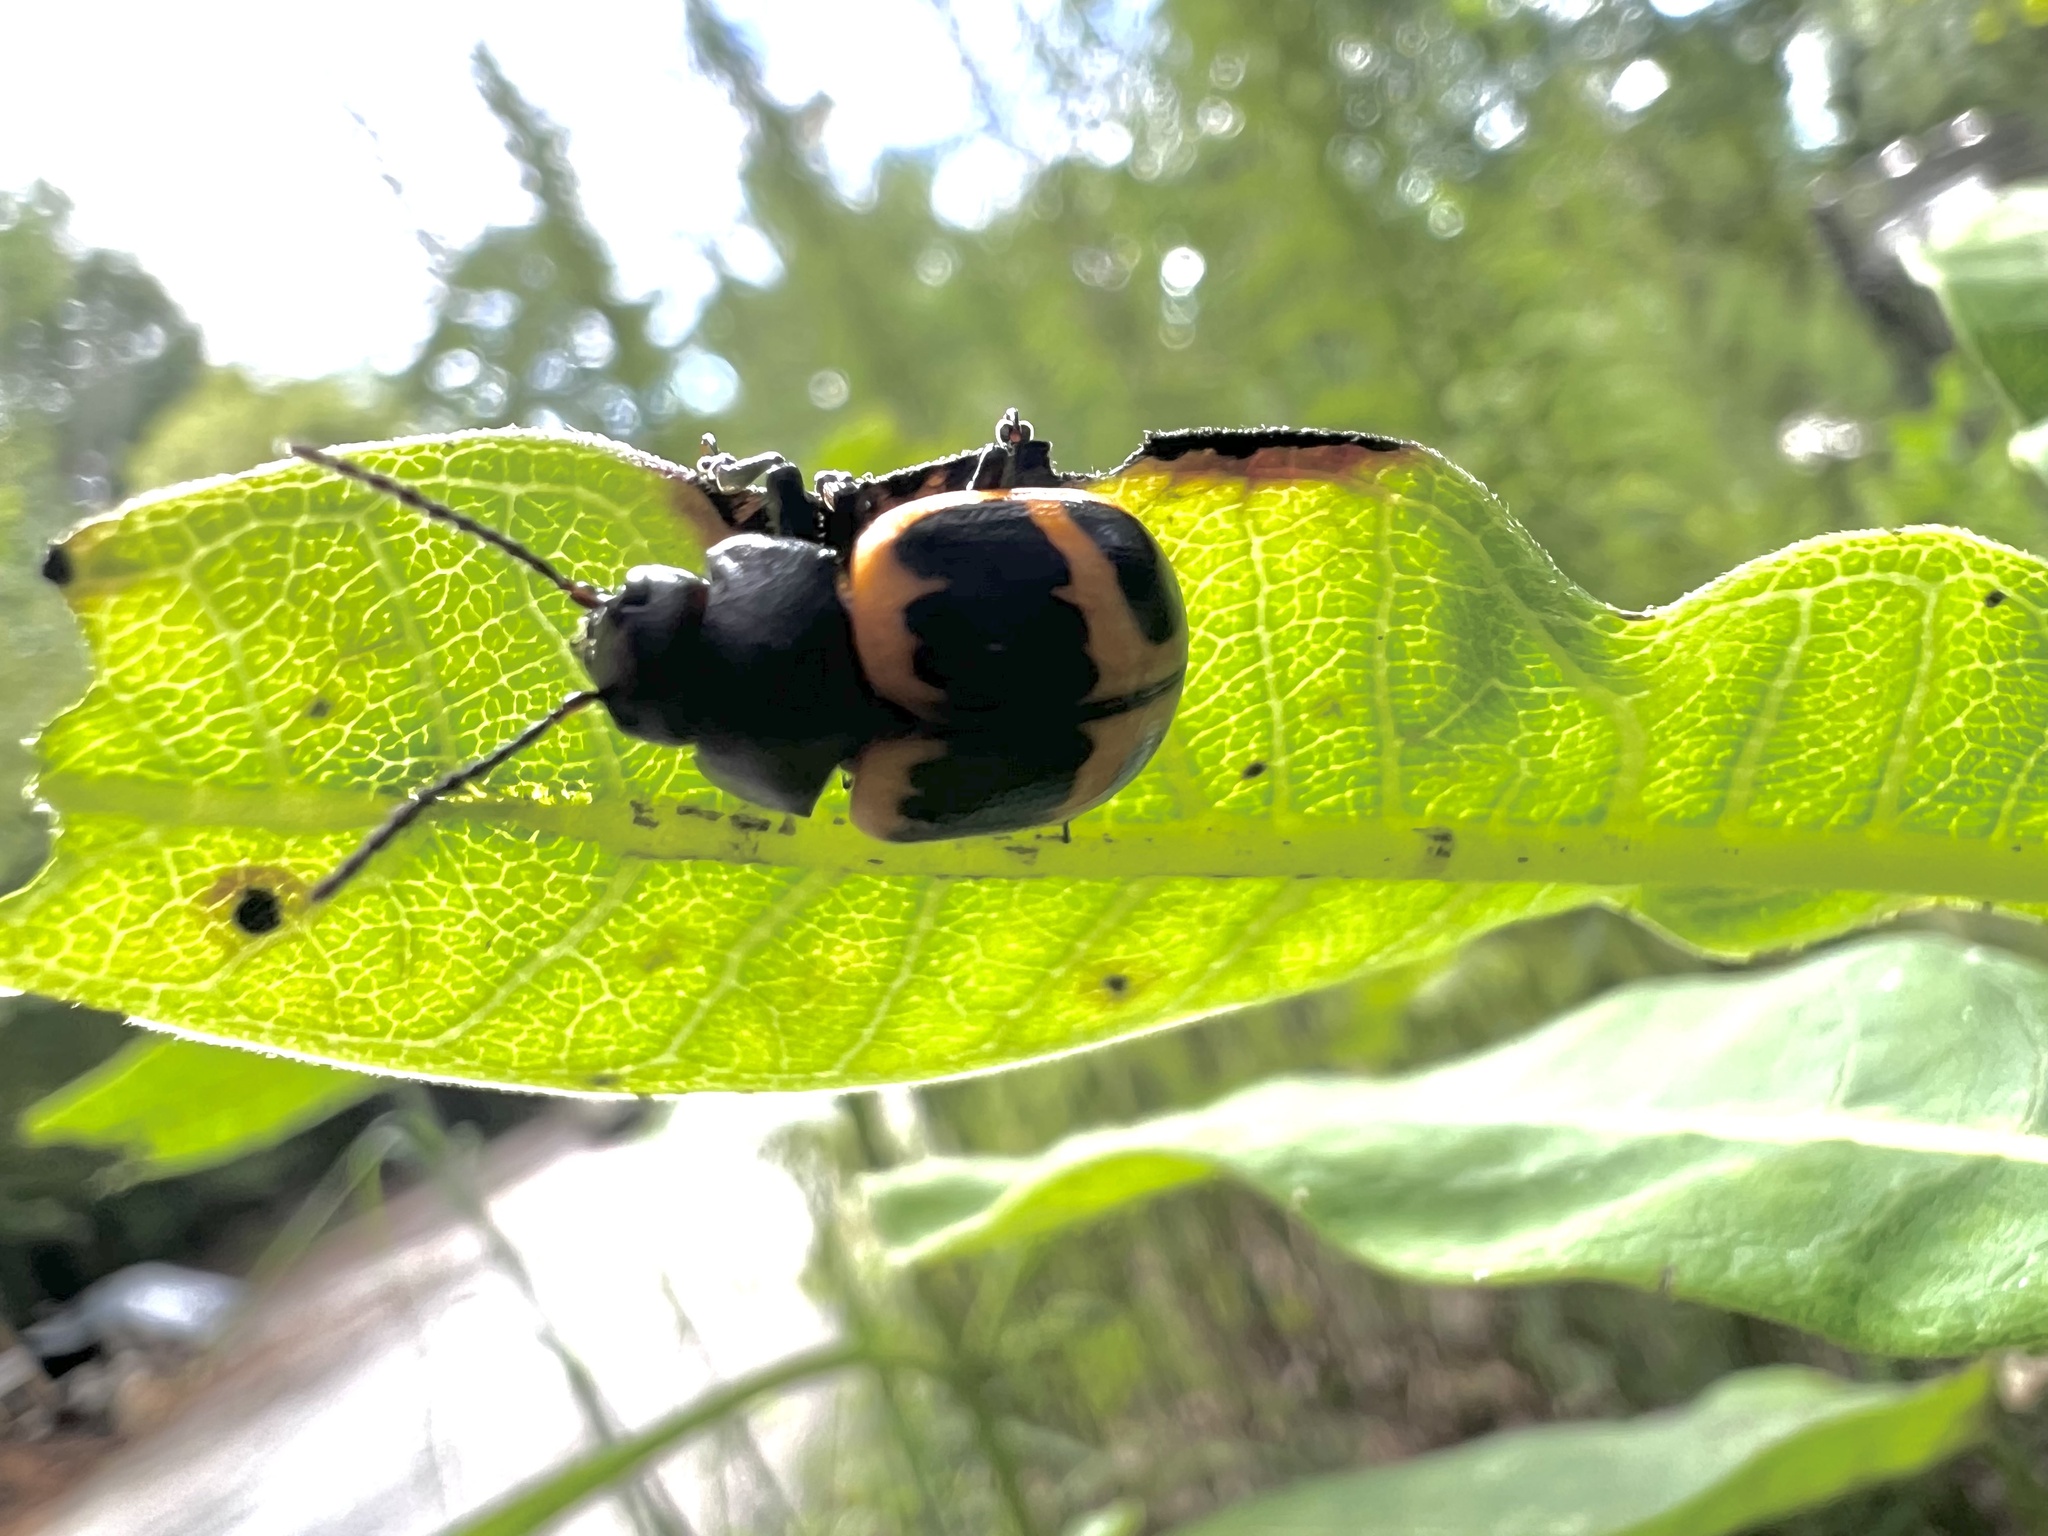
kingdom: Animalia
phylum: Arthropoda
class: Insecta
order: Coleoptera
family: Chrysomelidae
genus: Labidomera
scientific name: Labidomera clivicollis
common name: Swamp milkweed leaf beetle
